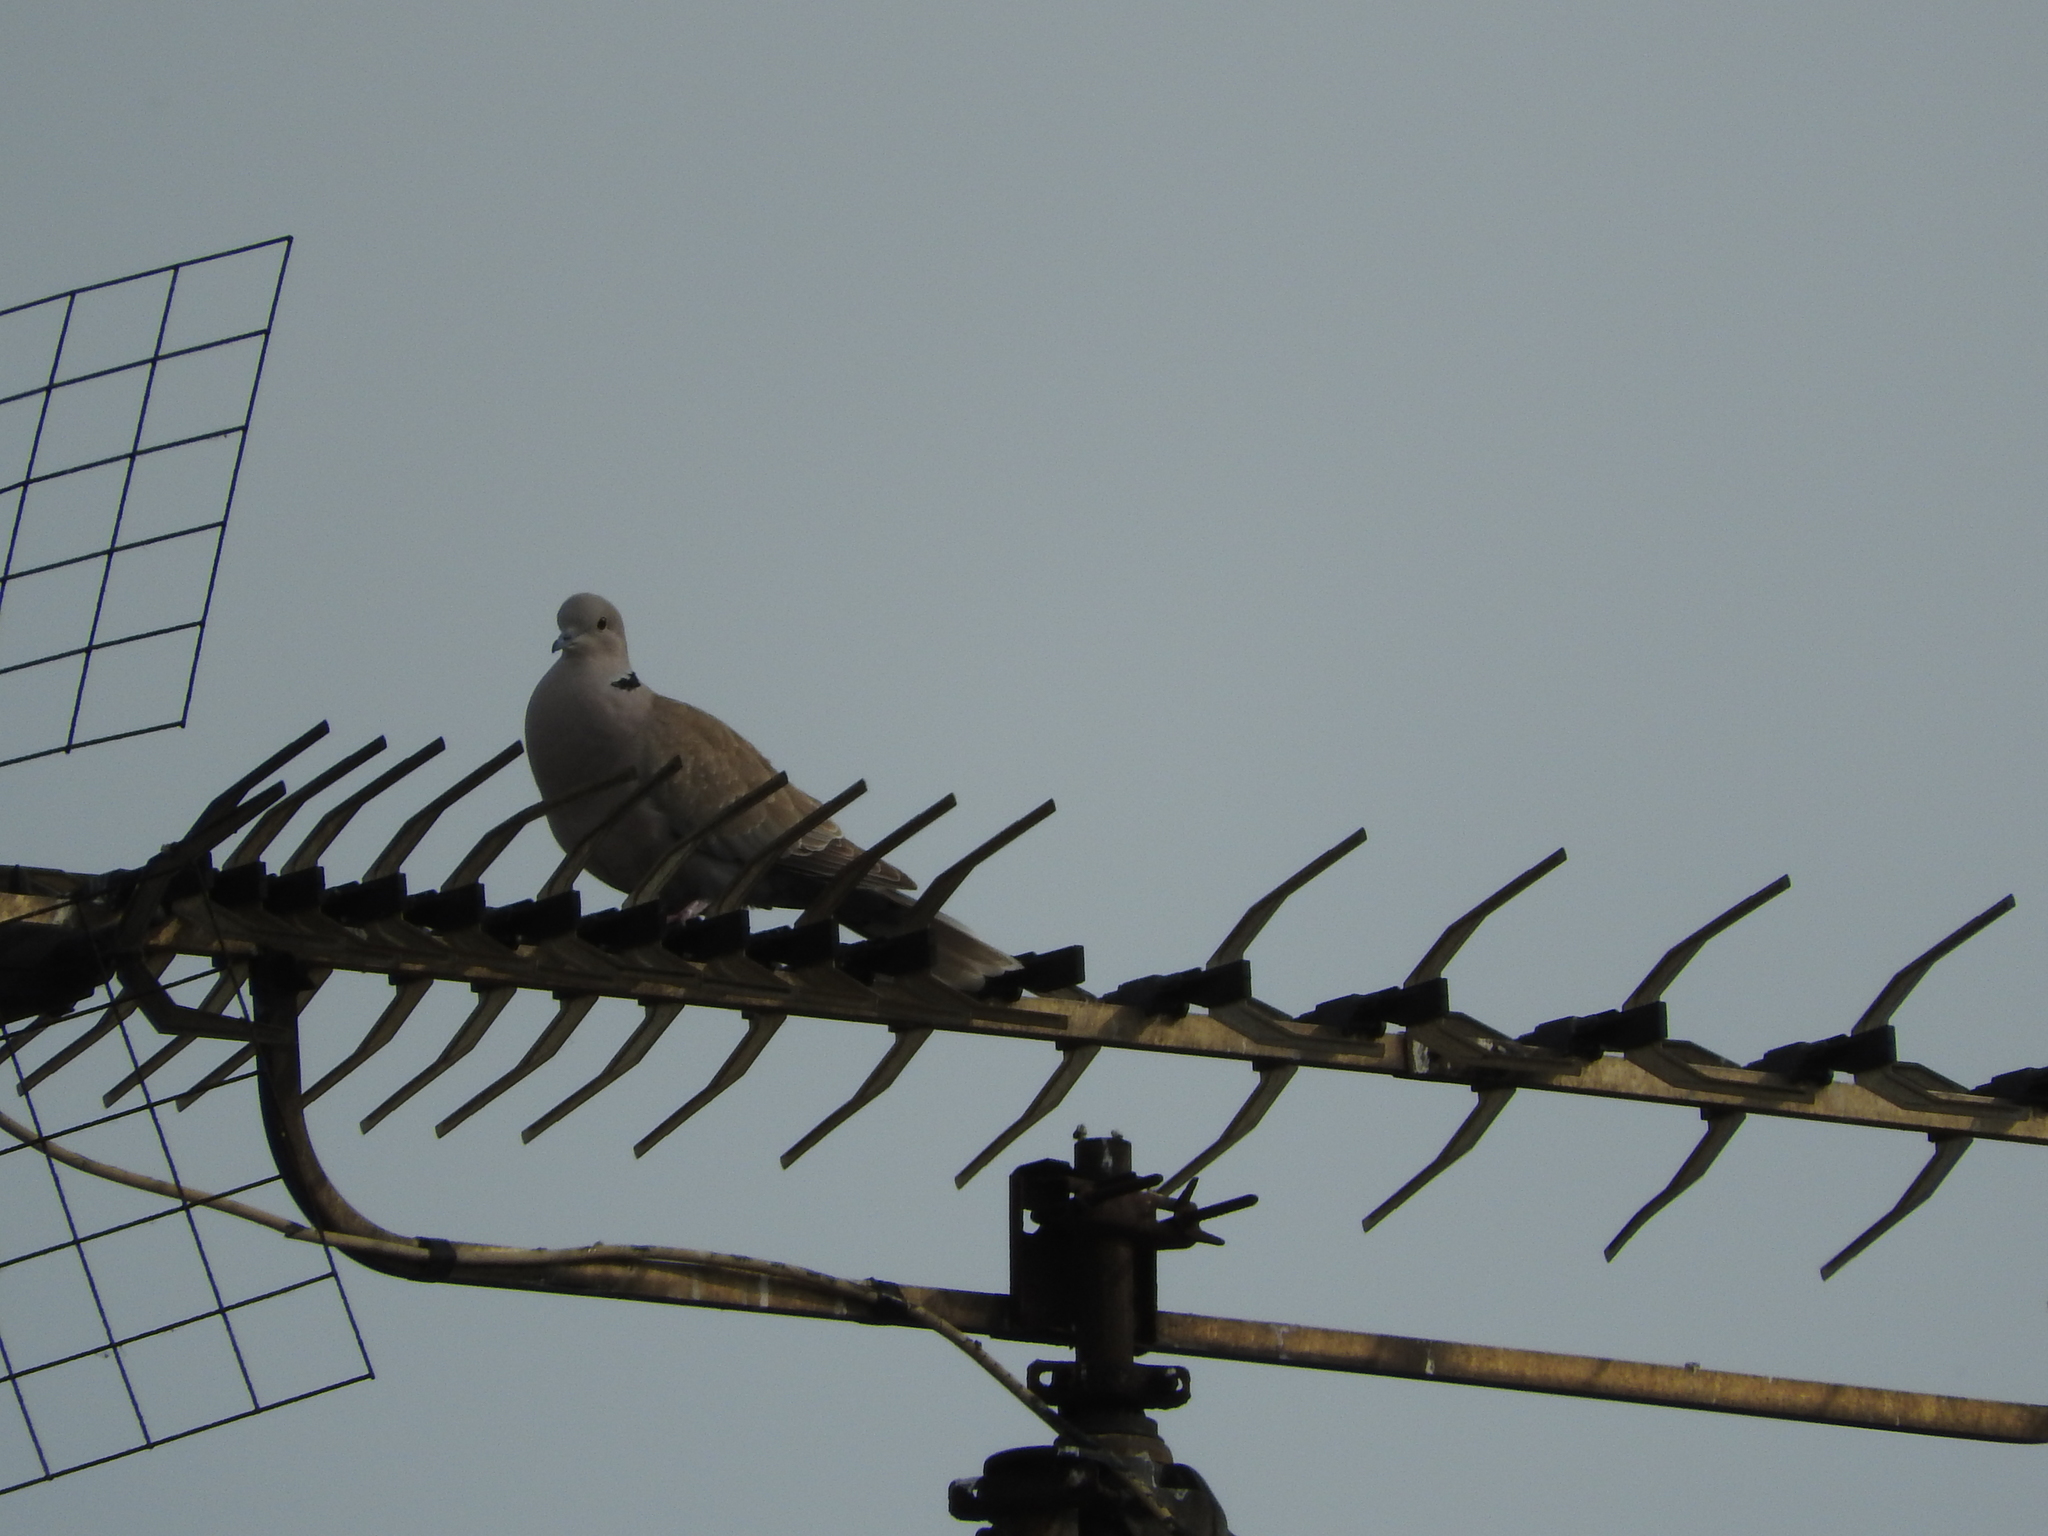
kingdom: Animalia
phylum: Chordata
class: Aves
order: Columbiformes
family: Columbidae
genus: Streptopelia
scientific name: Streptopelia decaocto
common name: Eurasian collared dove
